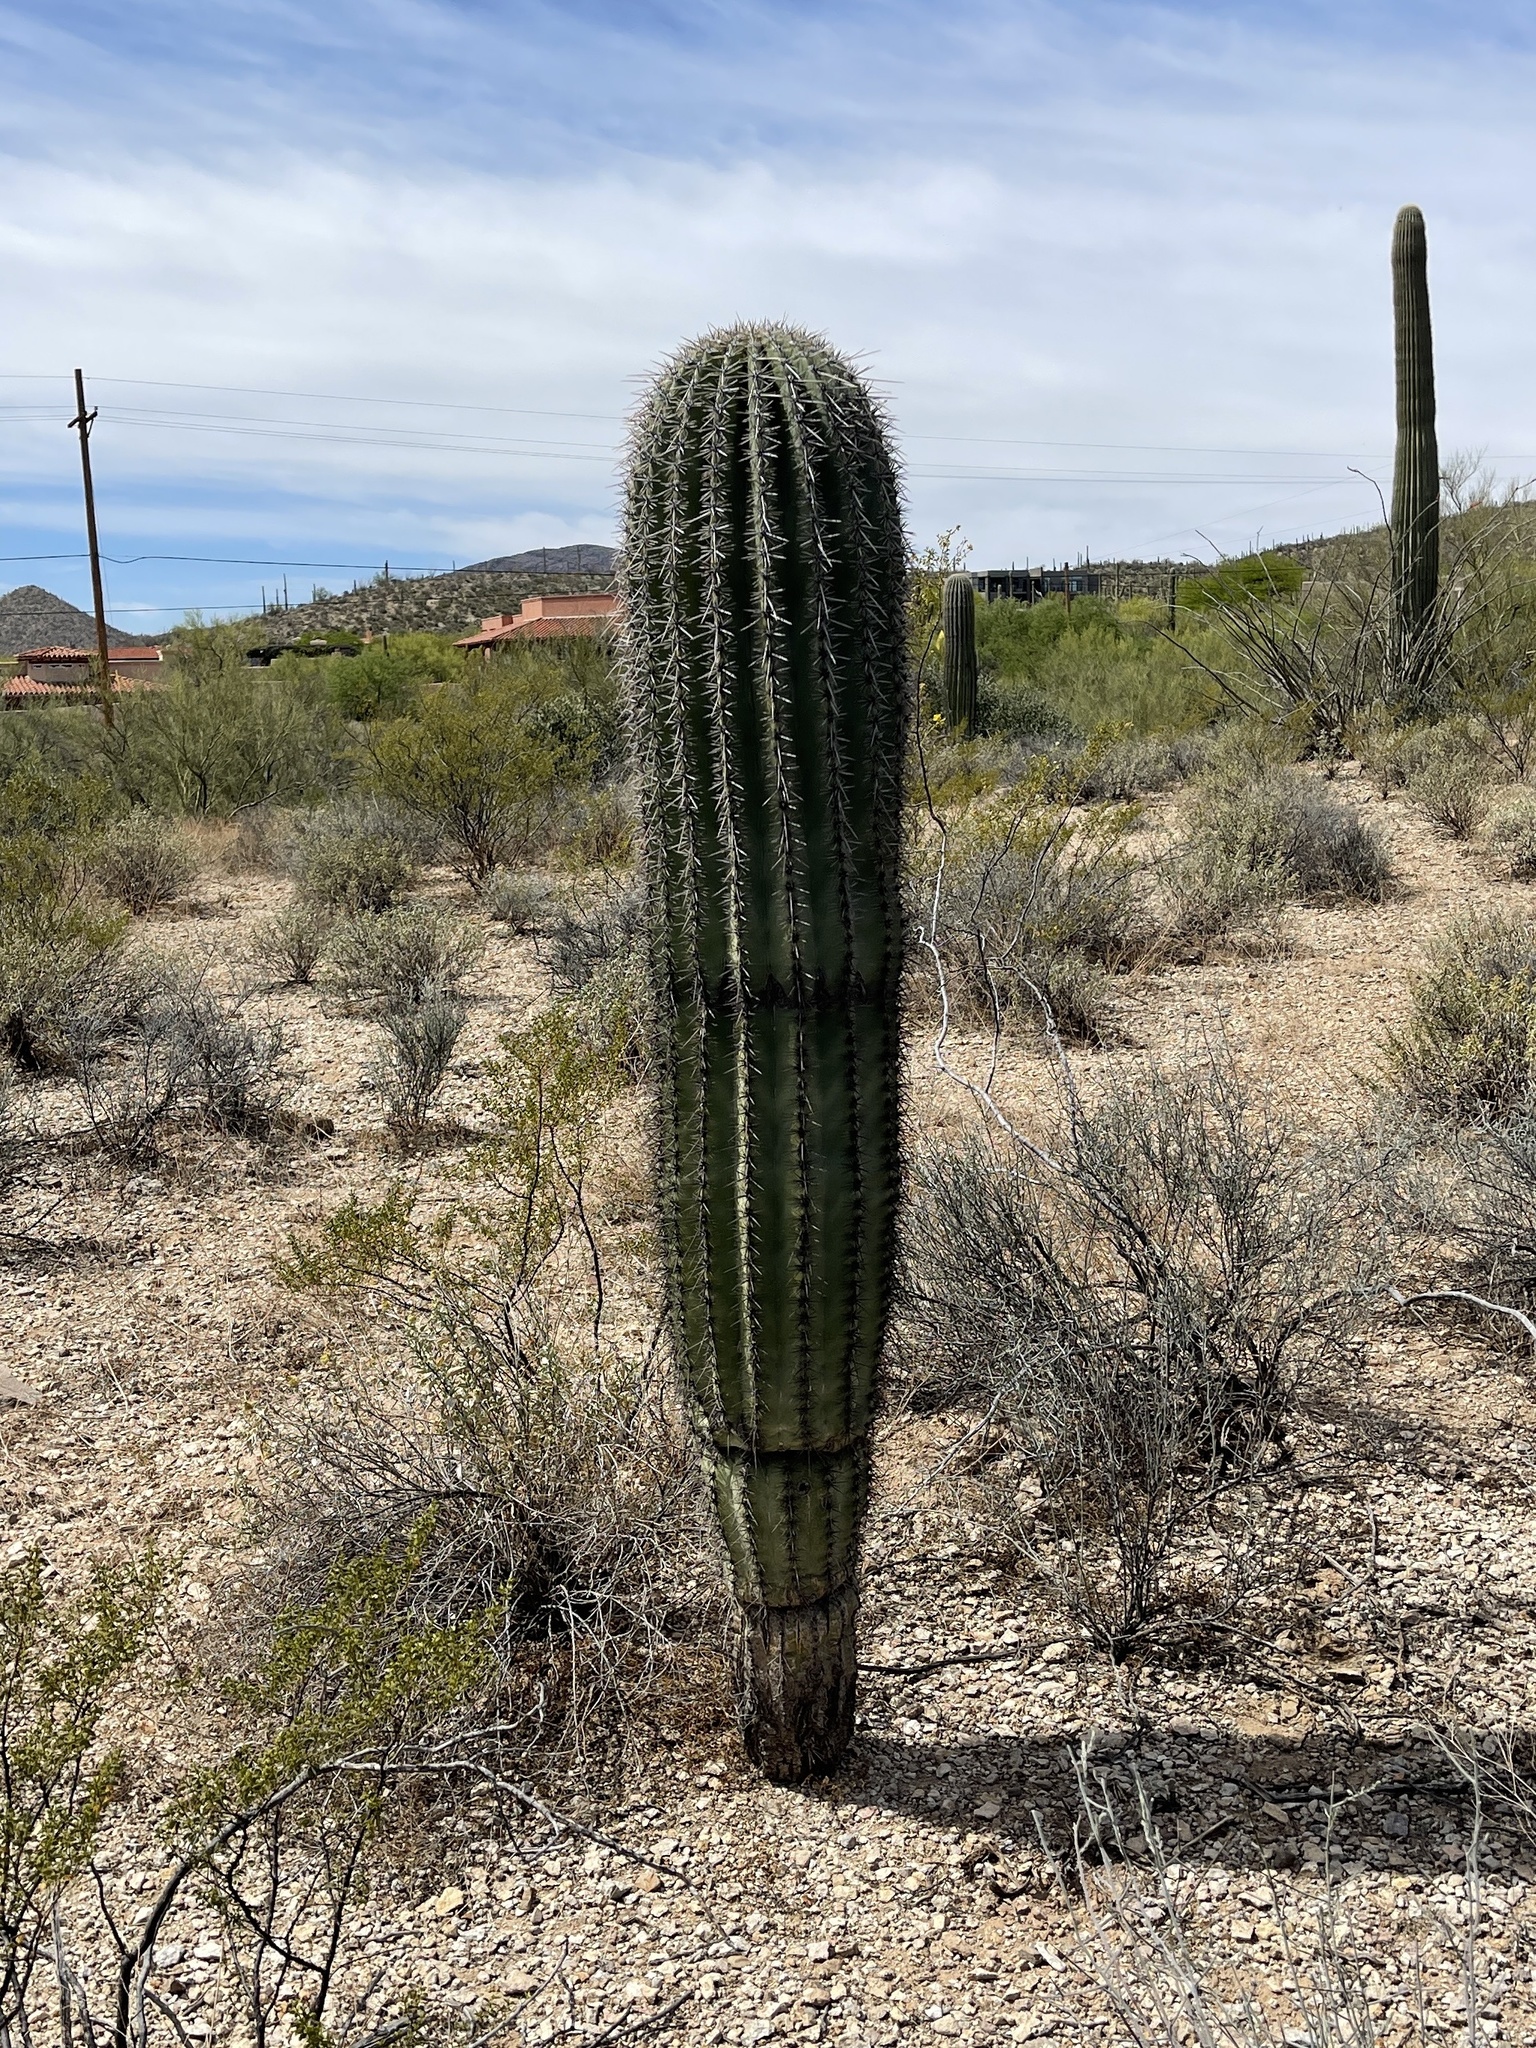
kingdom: Plantae
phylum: Tracheophyta
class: Magnoliopsida
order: Caryophyllales
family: Cactaceae
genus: Carnegiea
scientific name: Carnegiea gigantea
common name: Saguaro
